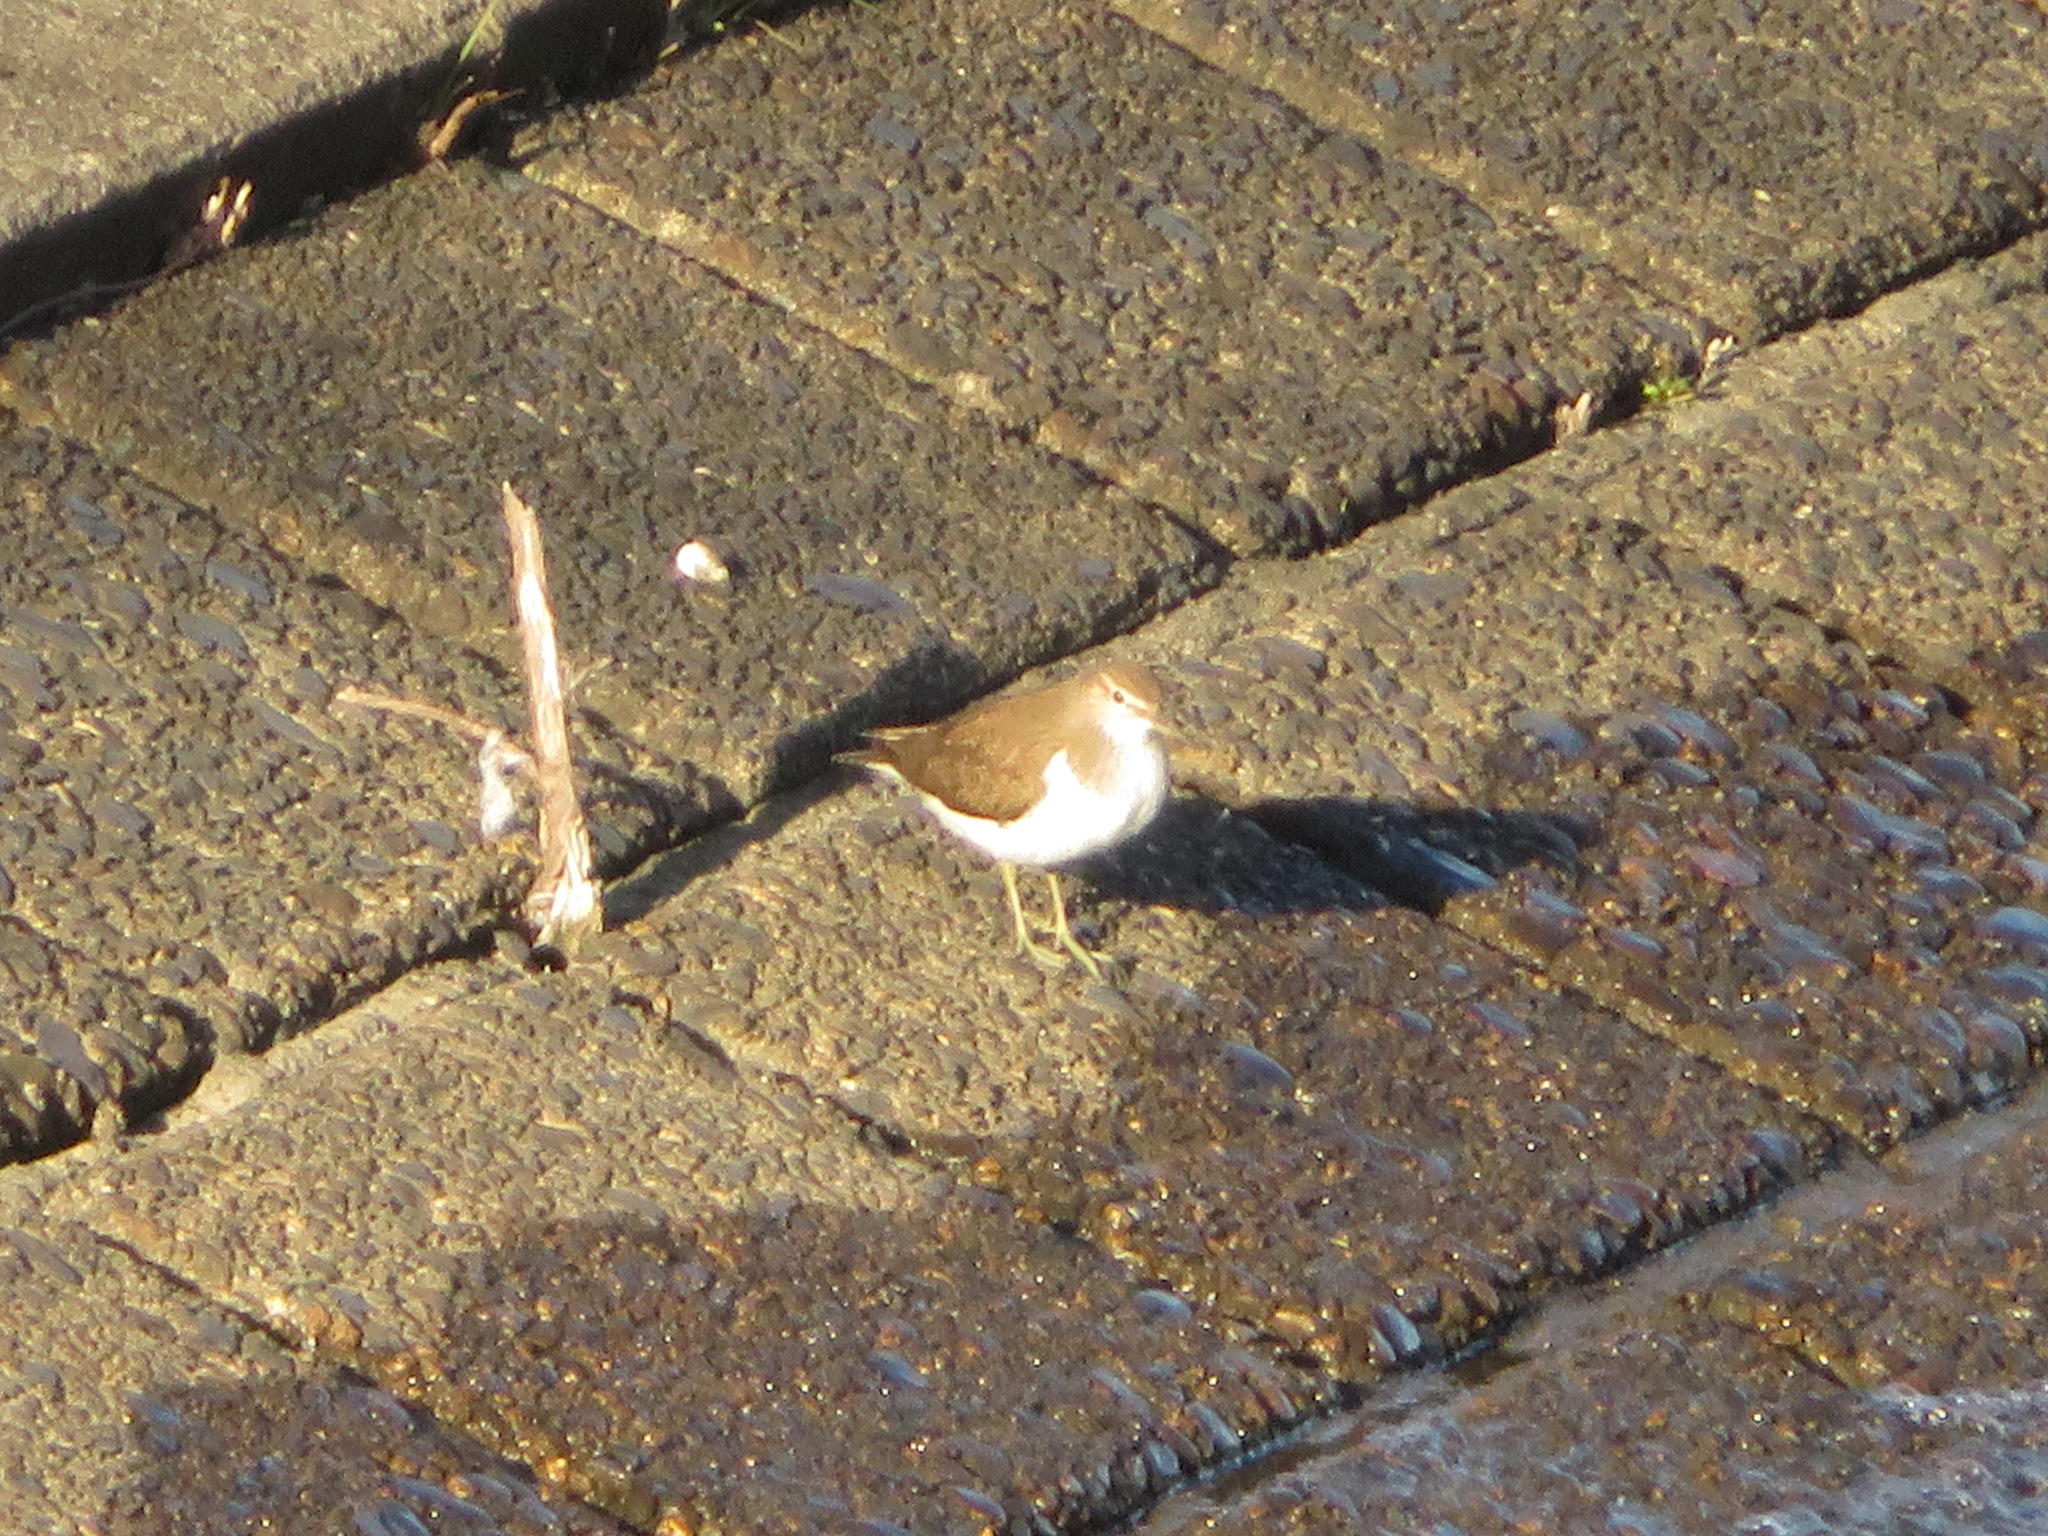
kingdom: Animalia
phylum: Chordata
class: Aves
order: Charadriiformes
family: Scolopacidae
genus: Actitis
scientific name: Actitis hypoleucos
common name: Common sandpiper
